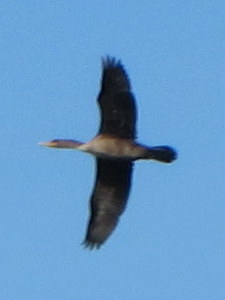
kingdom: Animalia
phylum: Chordata
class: Aves
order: Suliformes
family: Phalacrocoracidae
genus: Phalacrocorax
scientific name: Phalacrocorax auritus
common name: Double-crested cormorant
